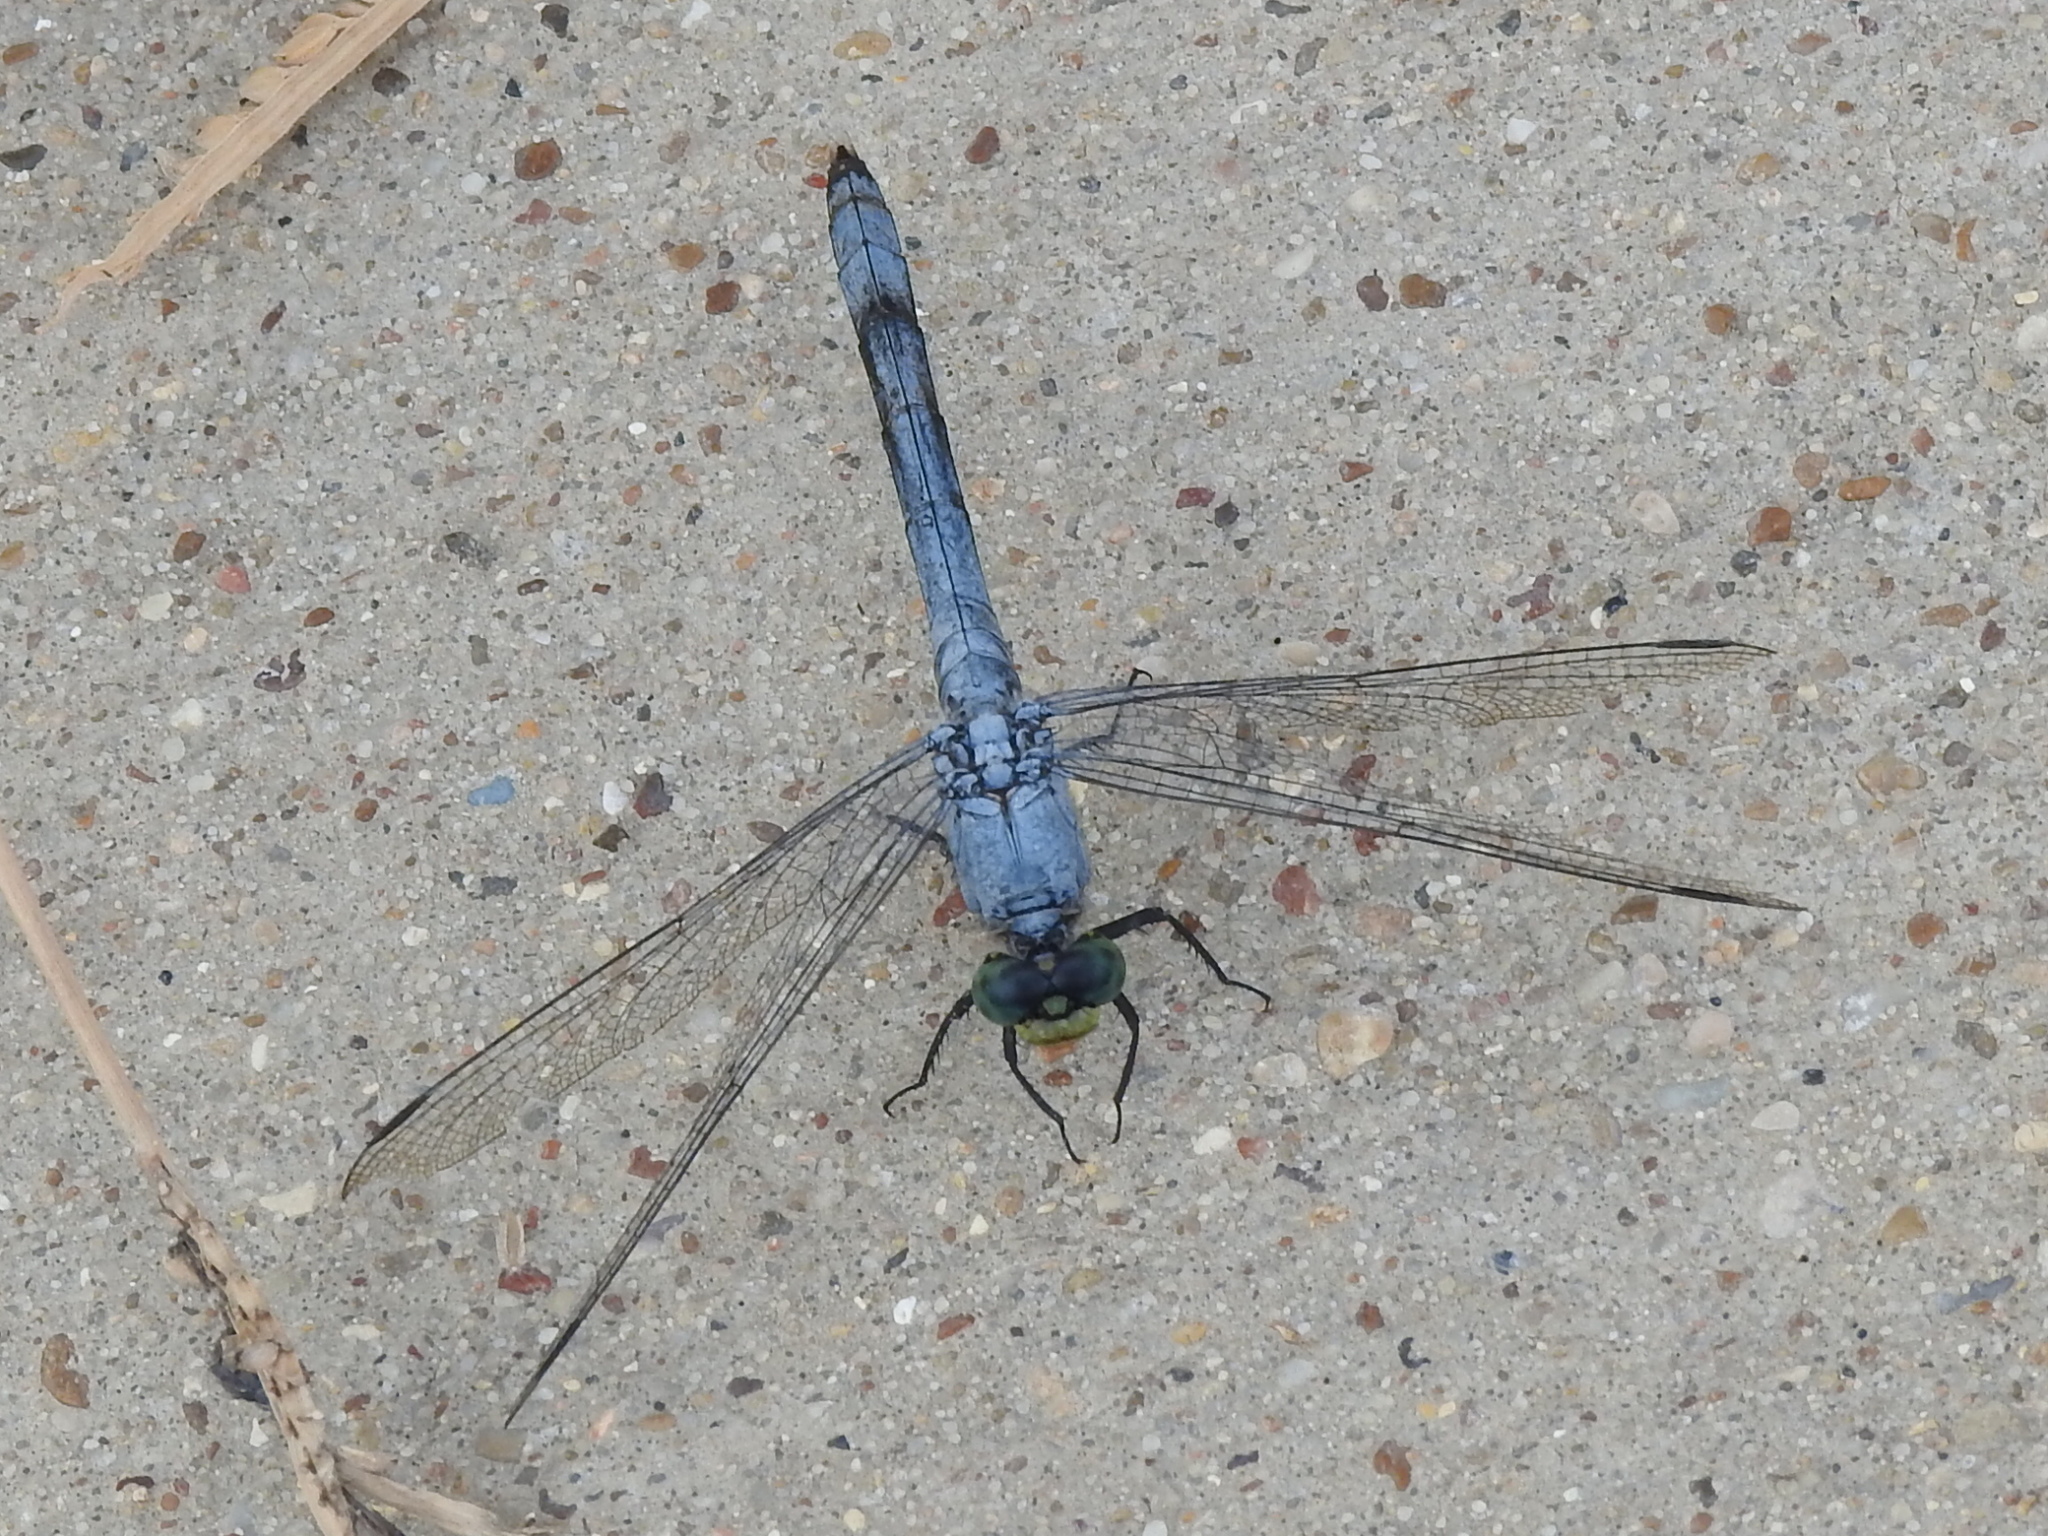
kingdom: Animalia
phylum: Arthropoda
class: Insecta
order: Odonata
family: Libellulidae
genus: Erythemis
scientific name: Erythemis simplicicollis
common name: Eastern pondhawk
